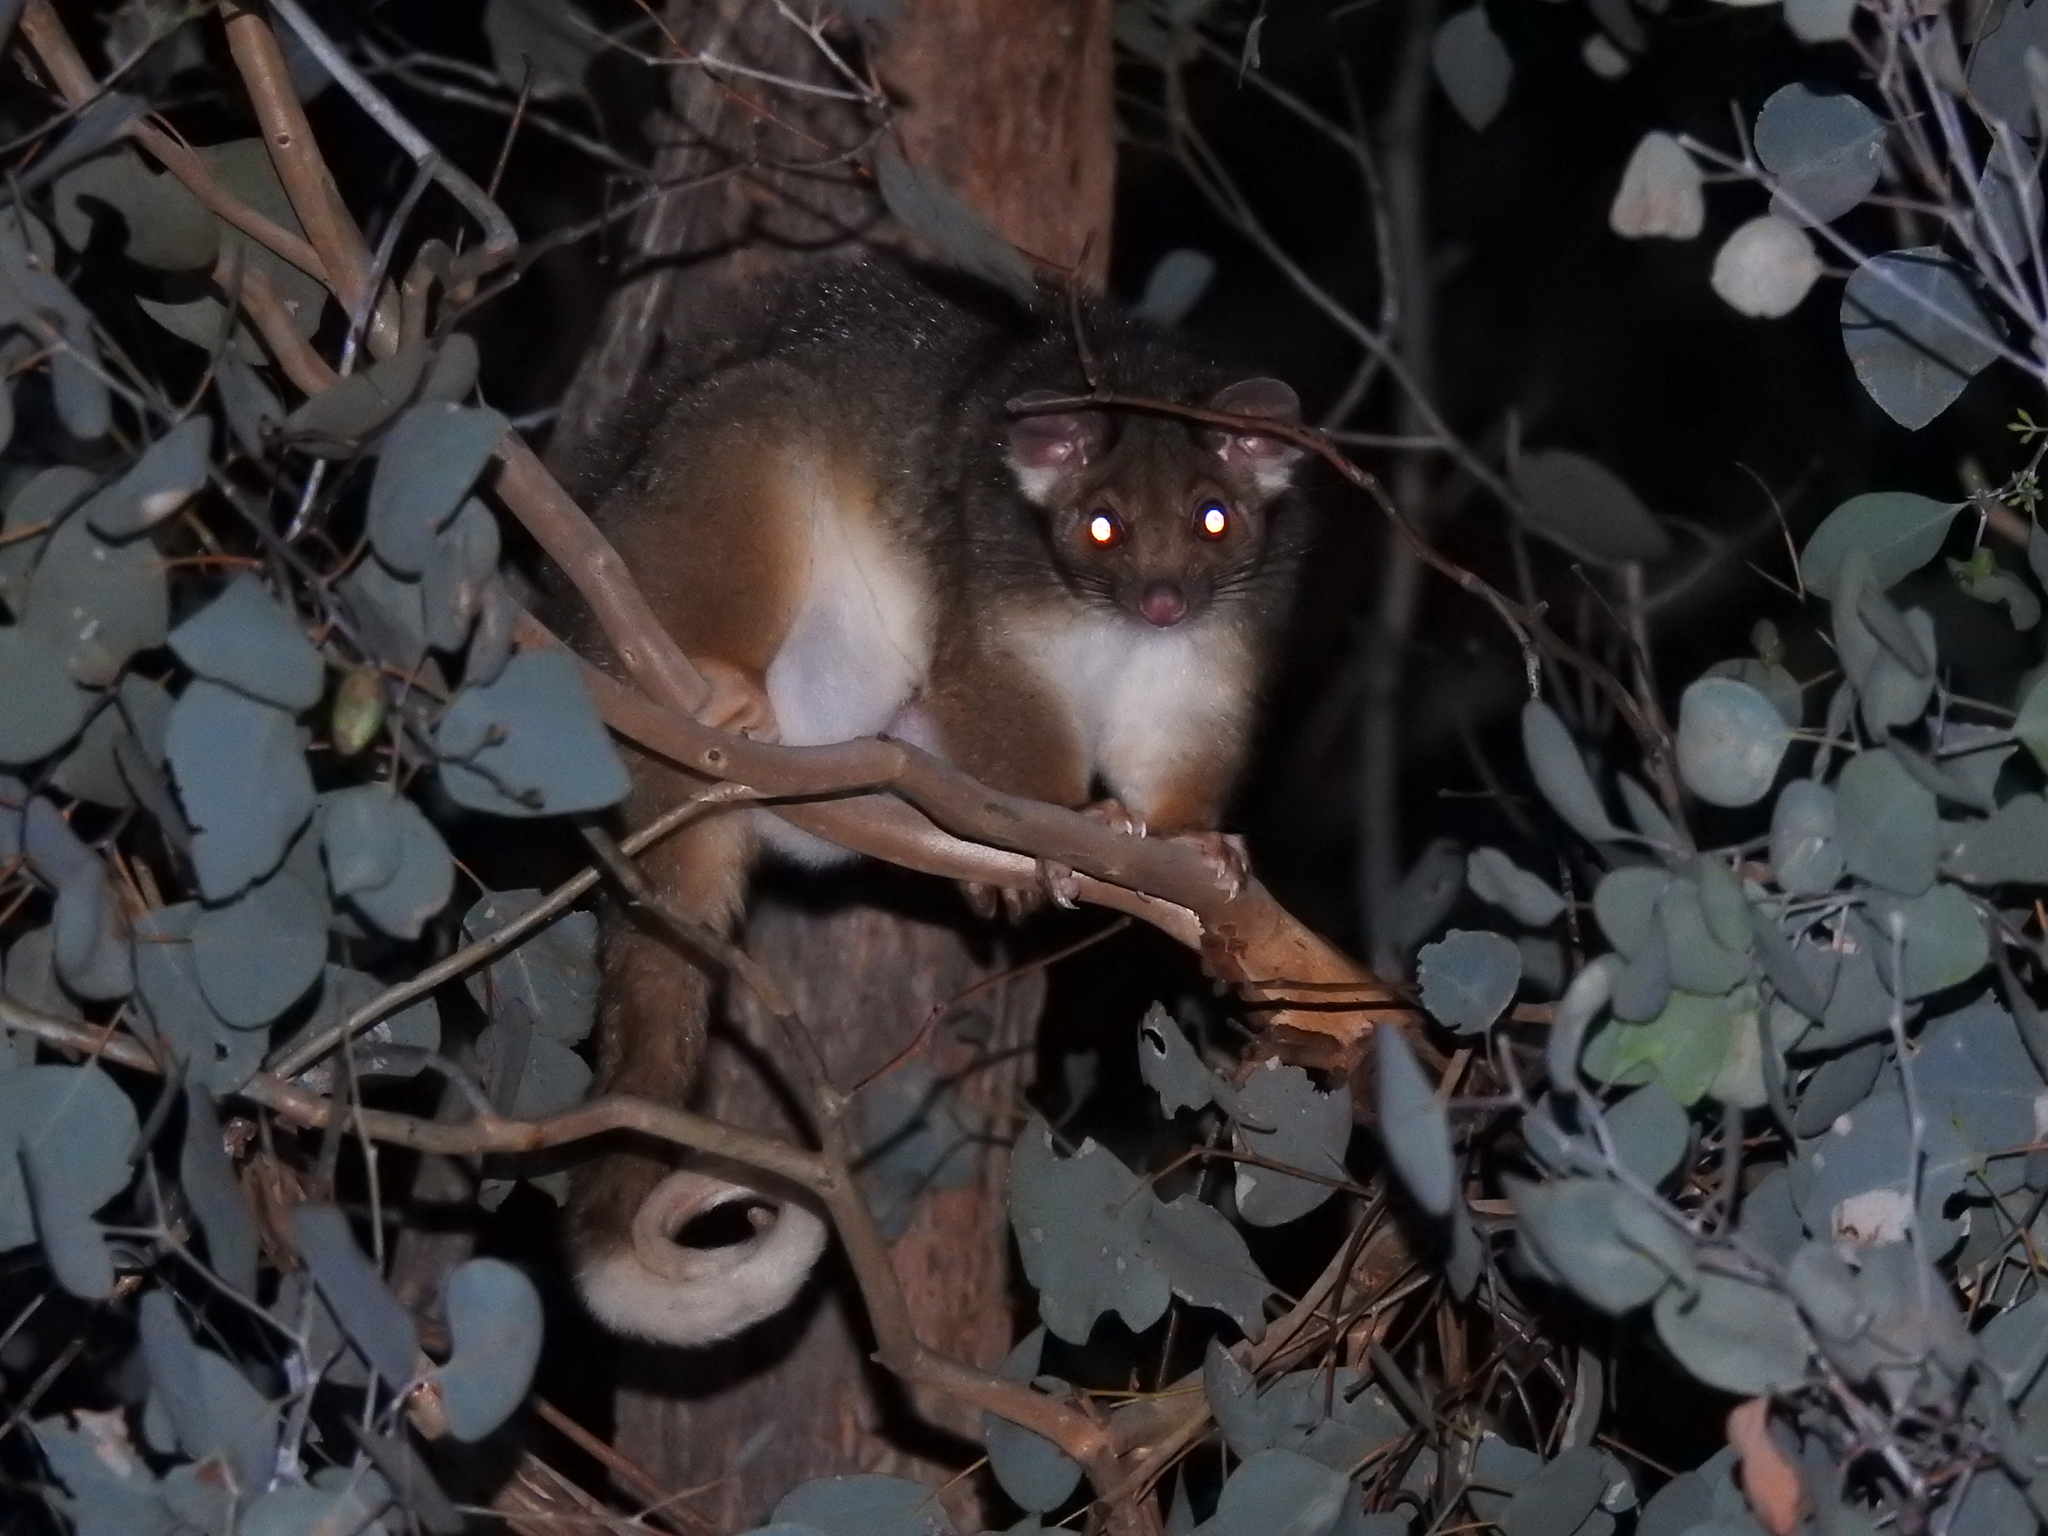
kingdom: Animalia
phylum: Chordata
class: Mammalia
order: Diprotodontia
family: Pseudocheiridae
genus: Pseudocheirus
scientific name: Pseudocheirus peregrinus
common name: Common ringtail possum
